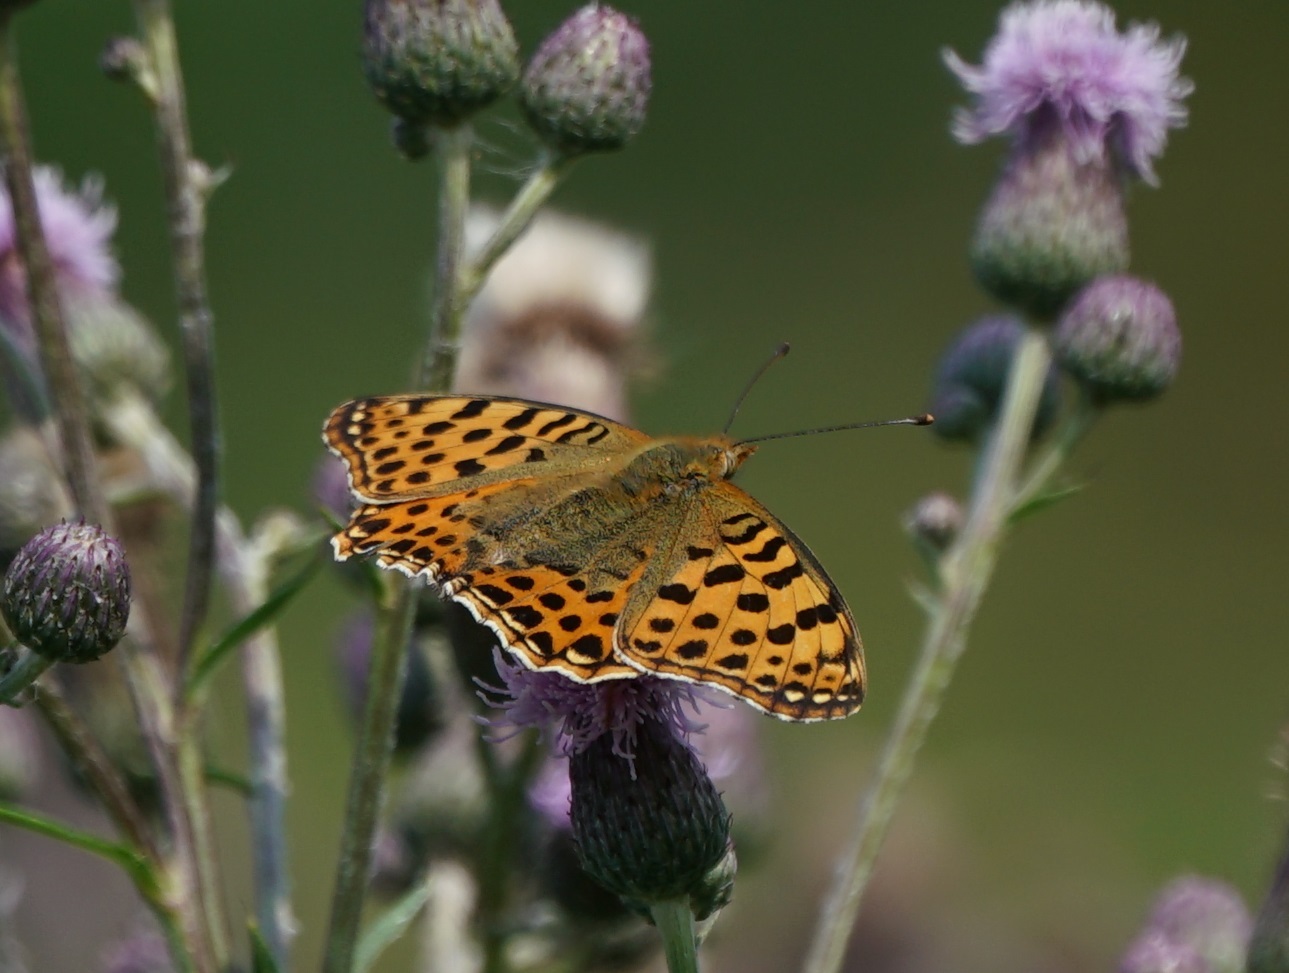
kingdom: Animalia
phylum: Arthropoda
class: Insecta
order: Lepidoptera
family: Nymphalidae
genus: Issoria
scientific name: Issoria lathonia
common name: Queen of spain fritillary
